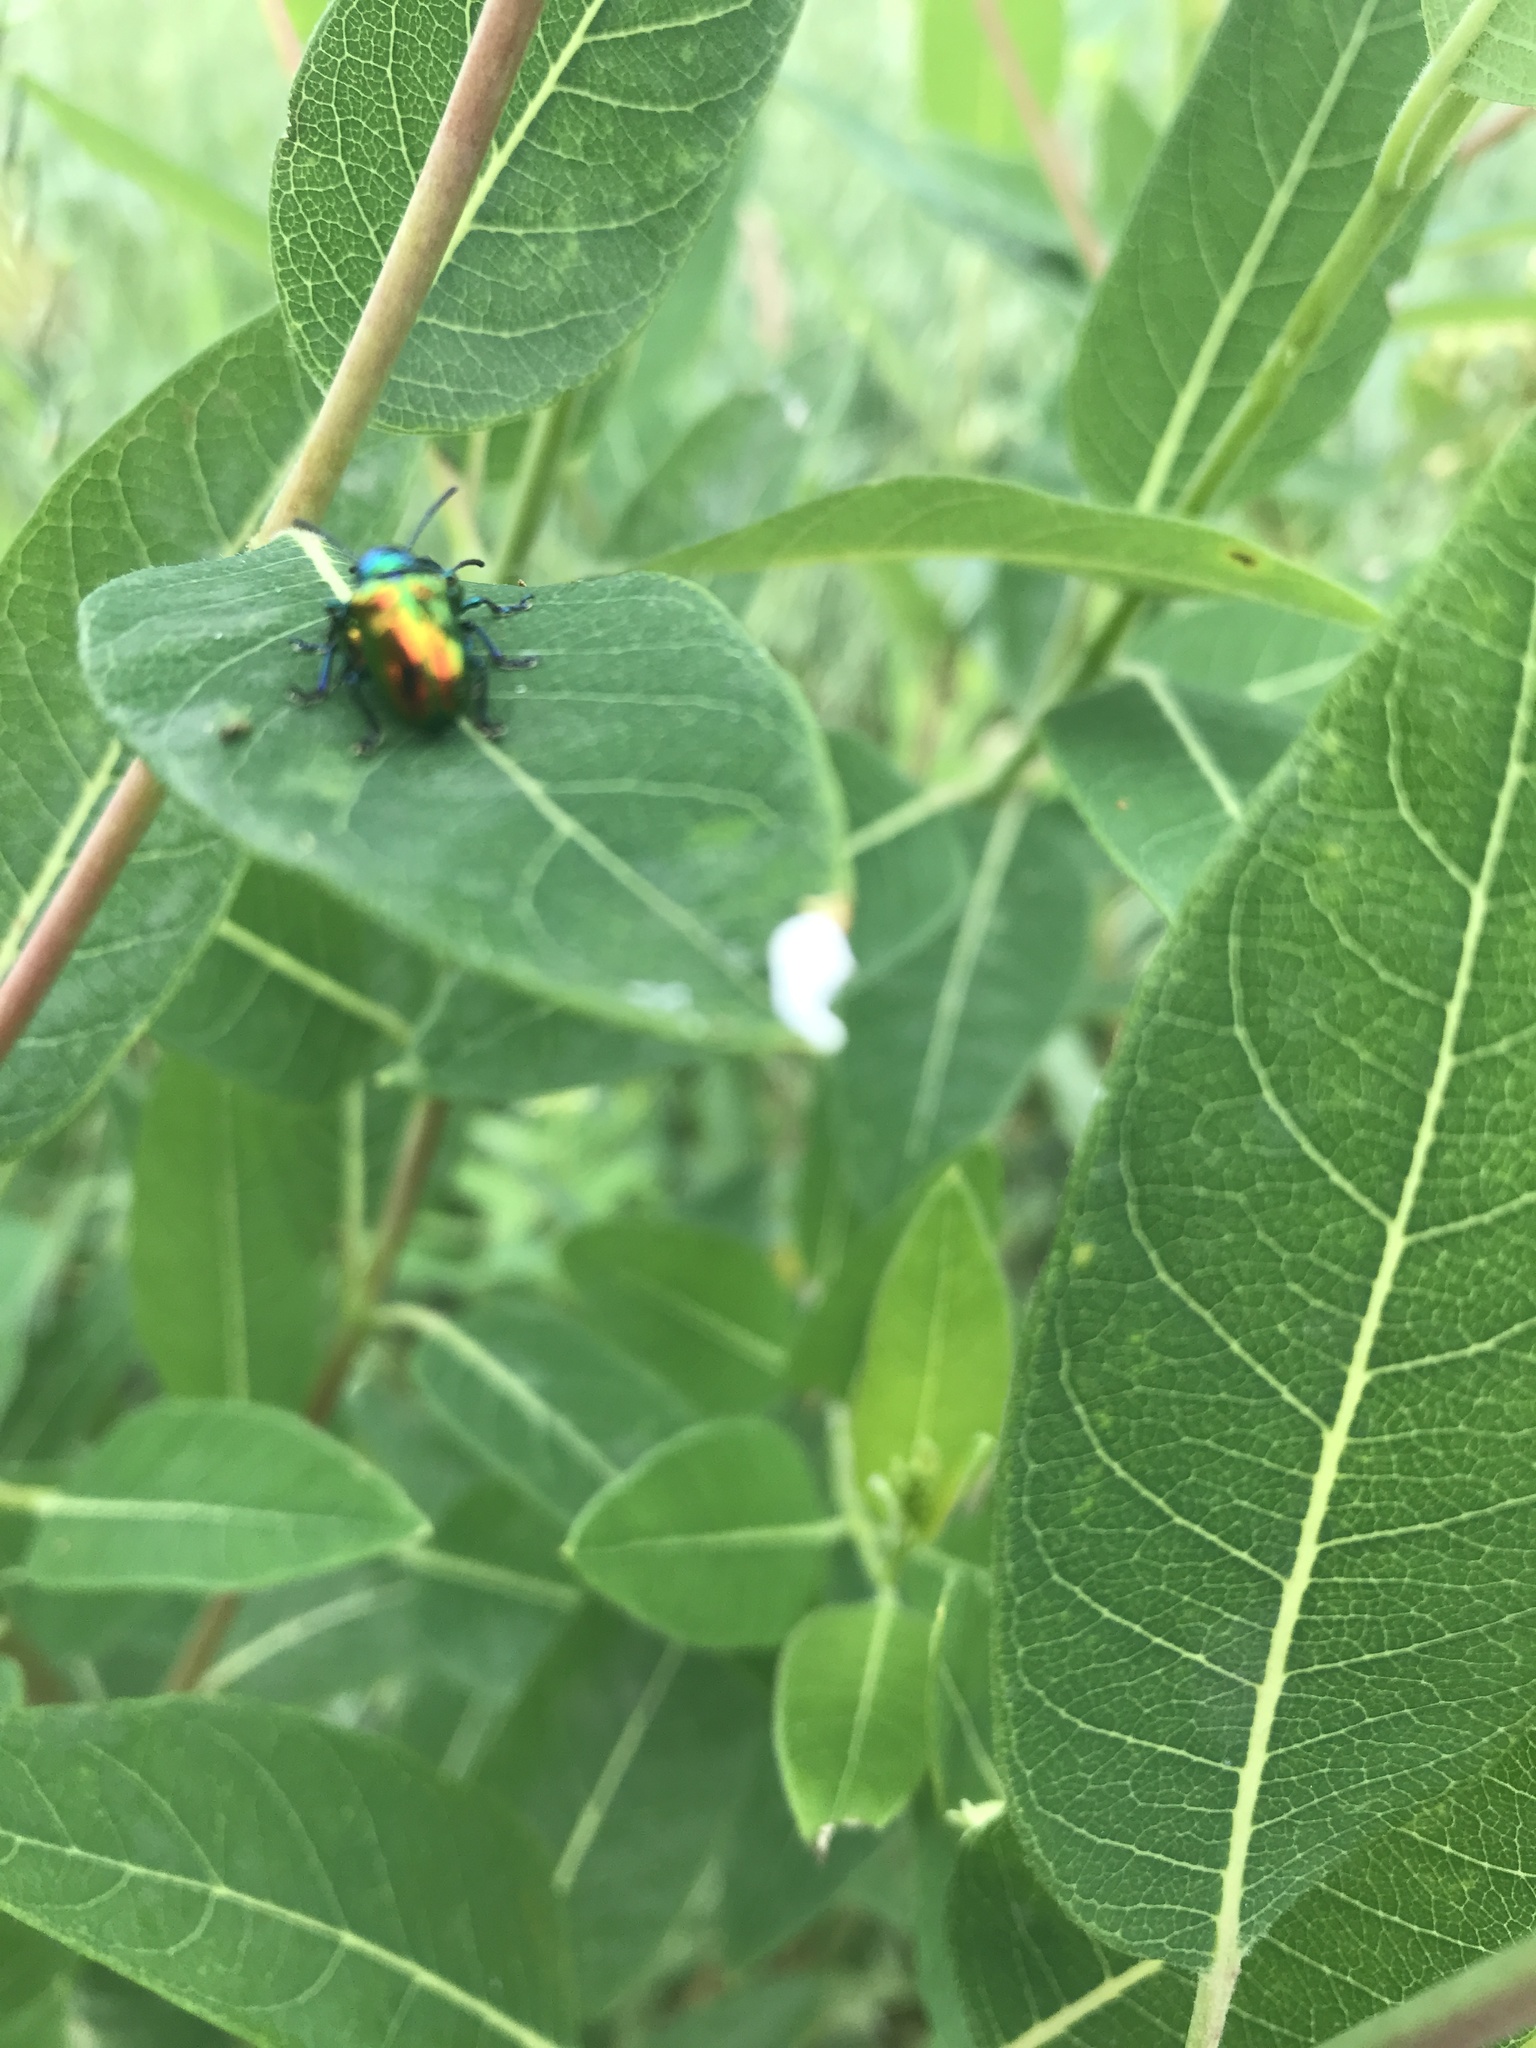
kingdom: Animalia
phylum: Arthropoda
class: Insecta
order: Coleoptera
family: Chrysomelidae
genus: Chrysochus
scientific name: Chrysochus auratus
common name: Dogbane leaf beetle
